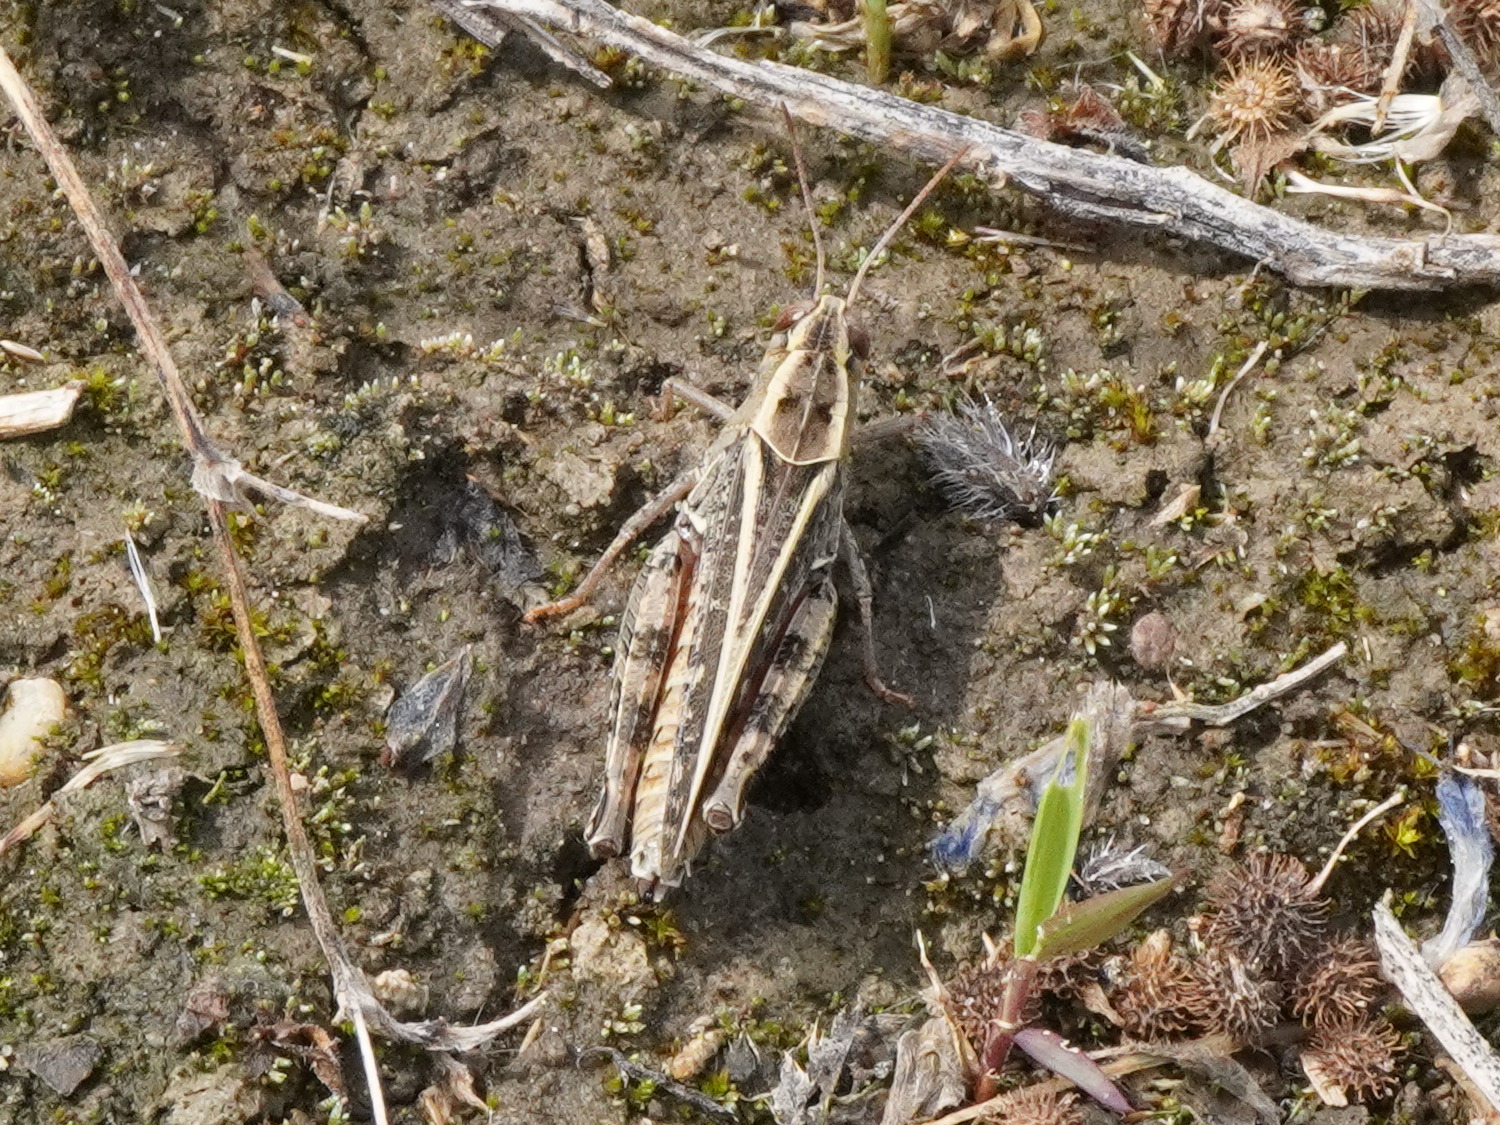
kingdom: Animalia
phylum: Arthropoda
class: Insecta
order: Orthoptera
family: Acrididae
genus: Calliptamus
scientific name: Calliptamus italicus
